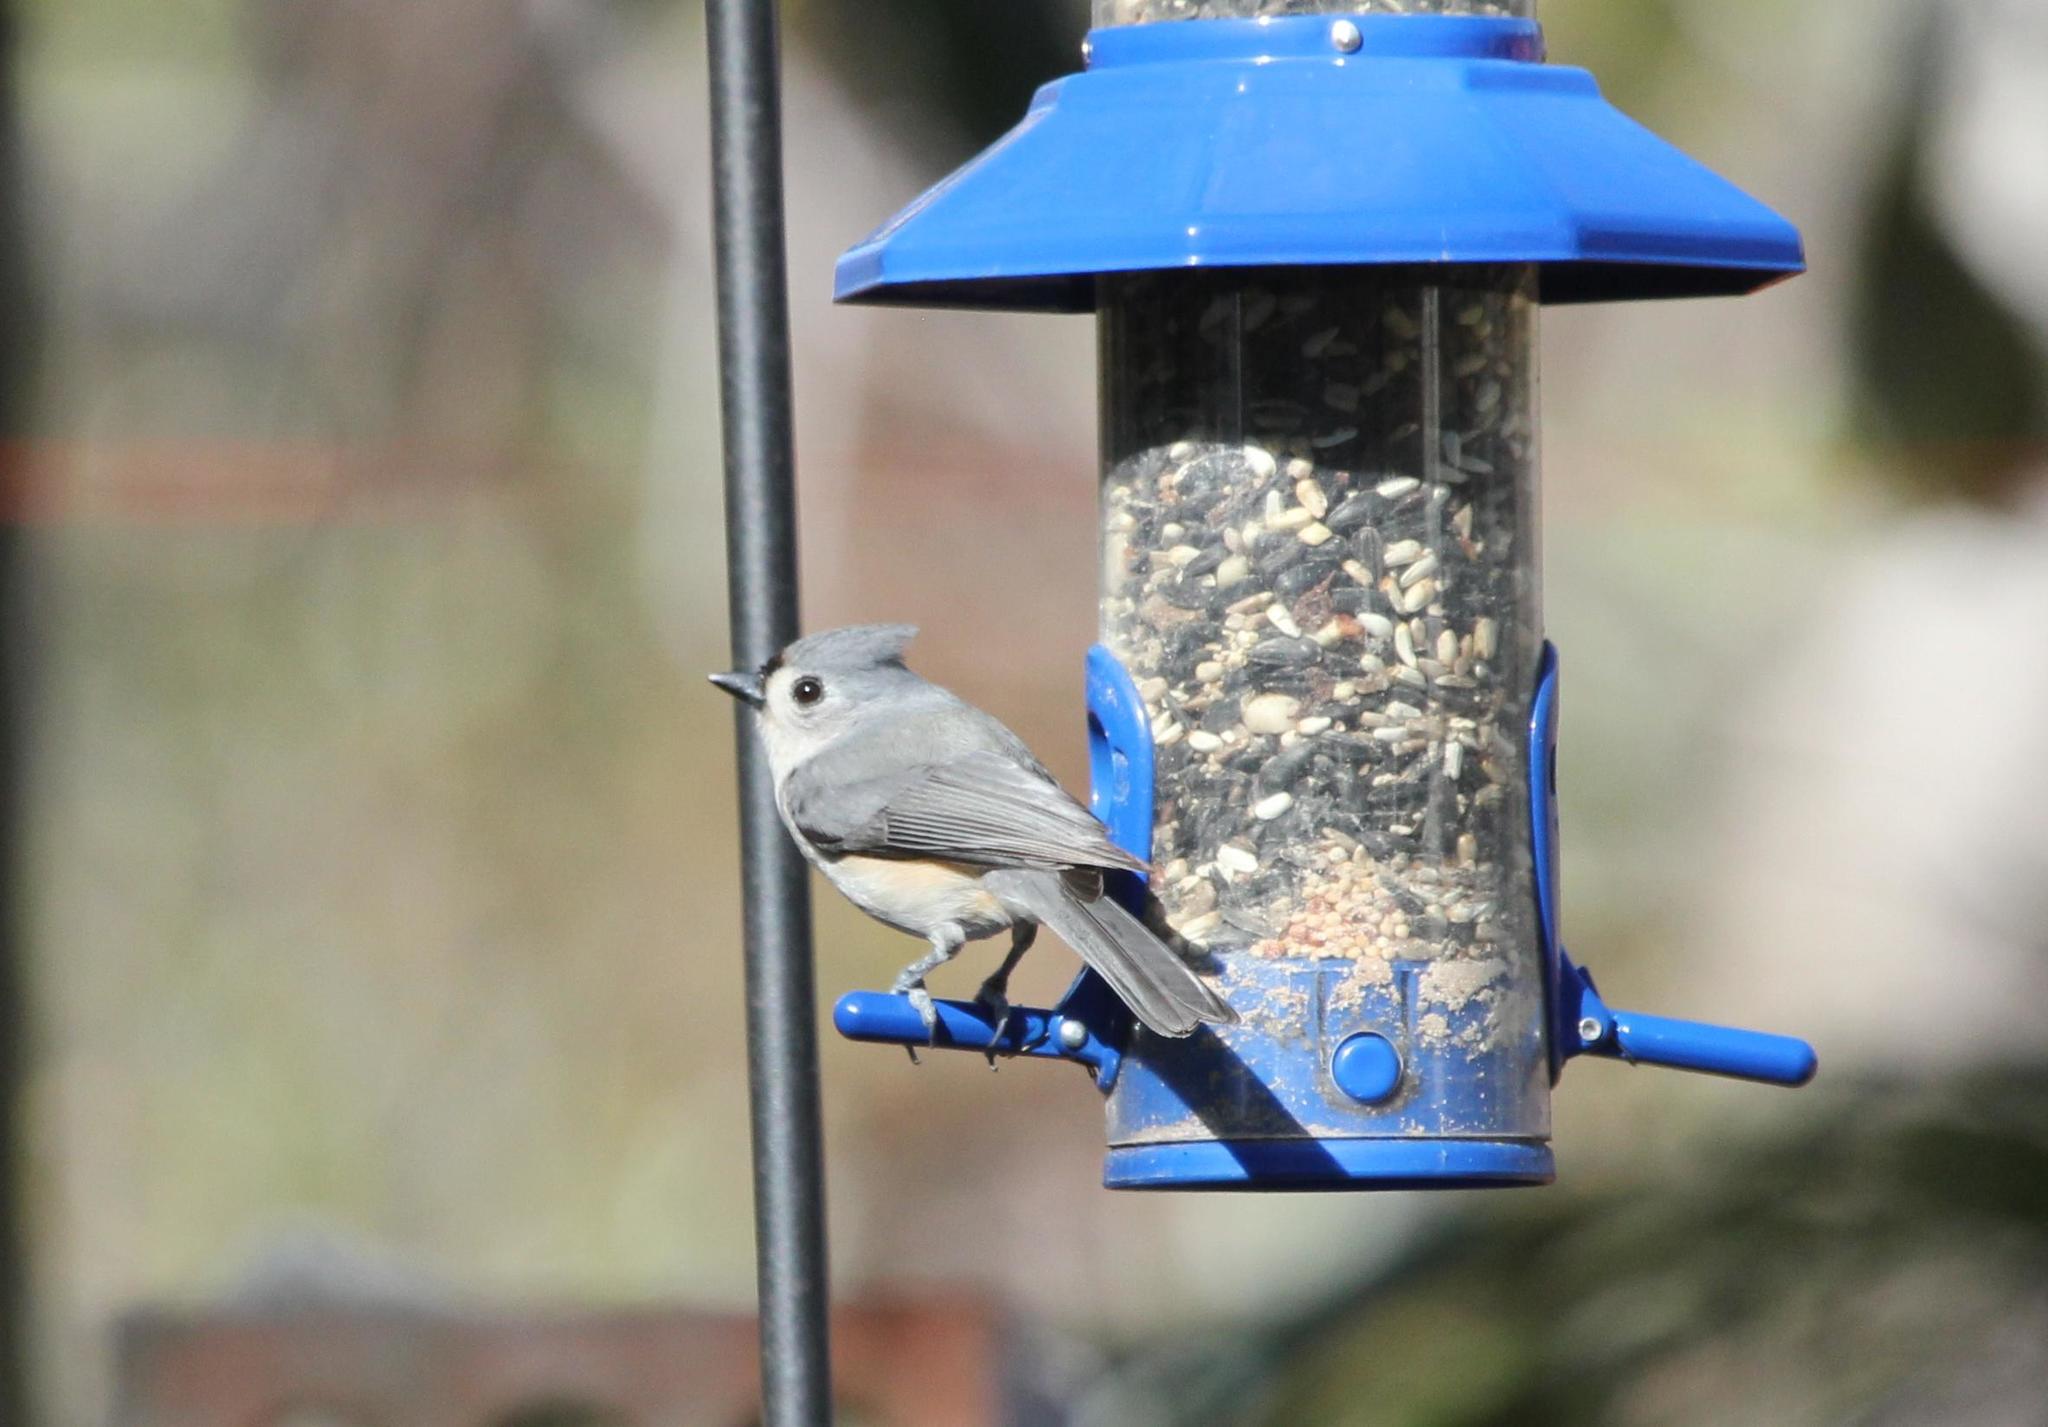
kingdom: Animalia
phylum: Chordata
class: Aves
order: Passeriformes
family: Paridae
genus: Baeolophus
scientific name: Baeolophus bicolor
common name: Tufted titmouse
